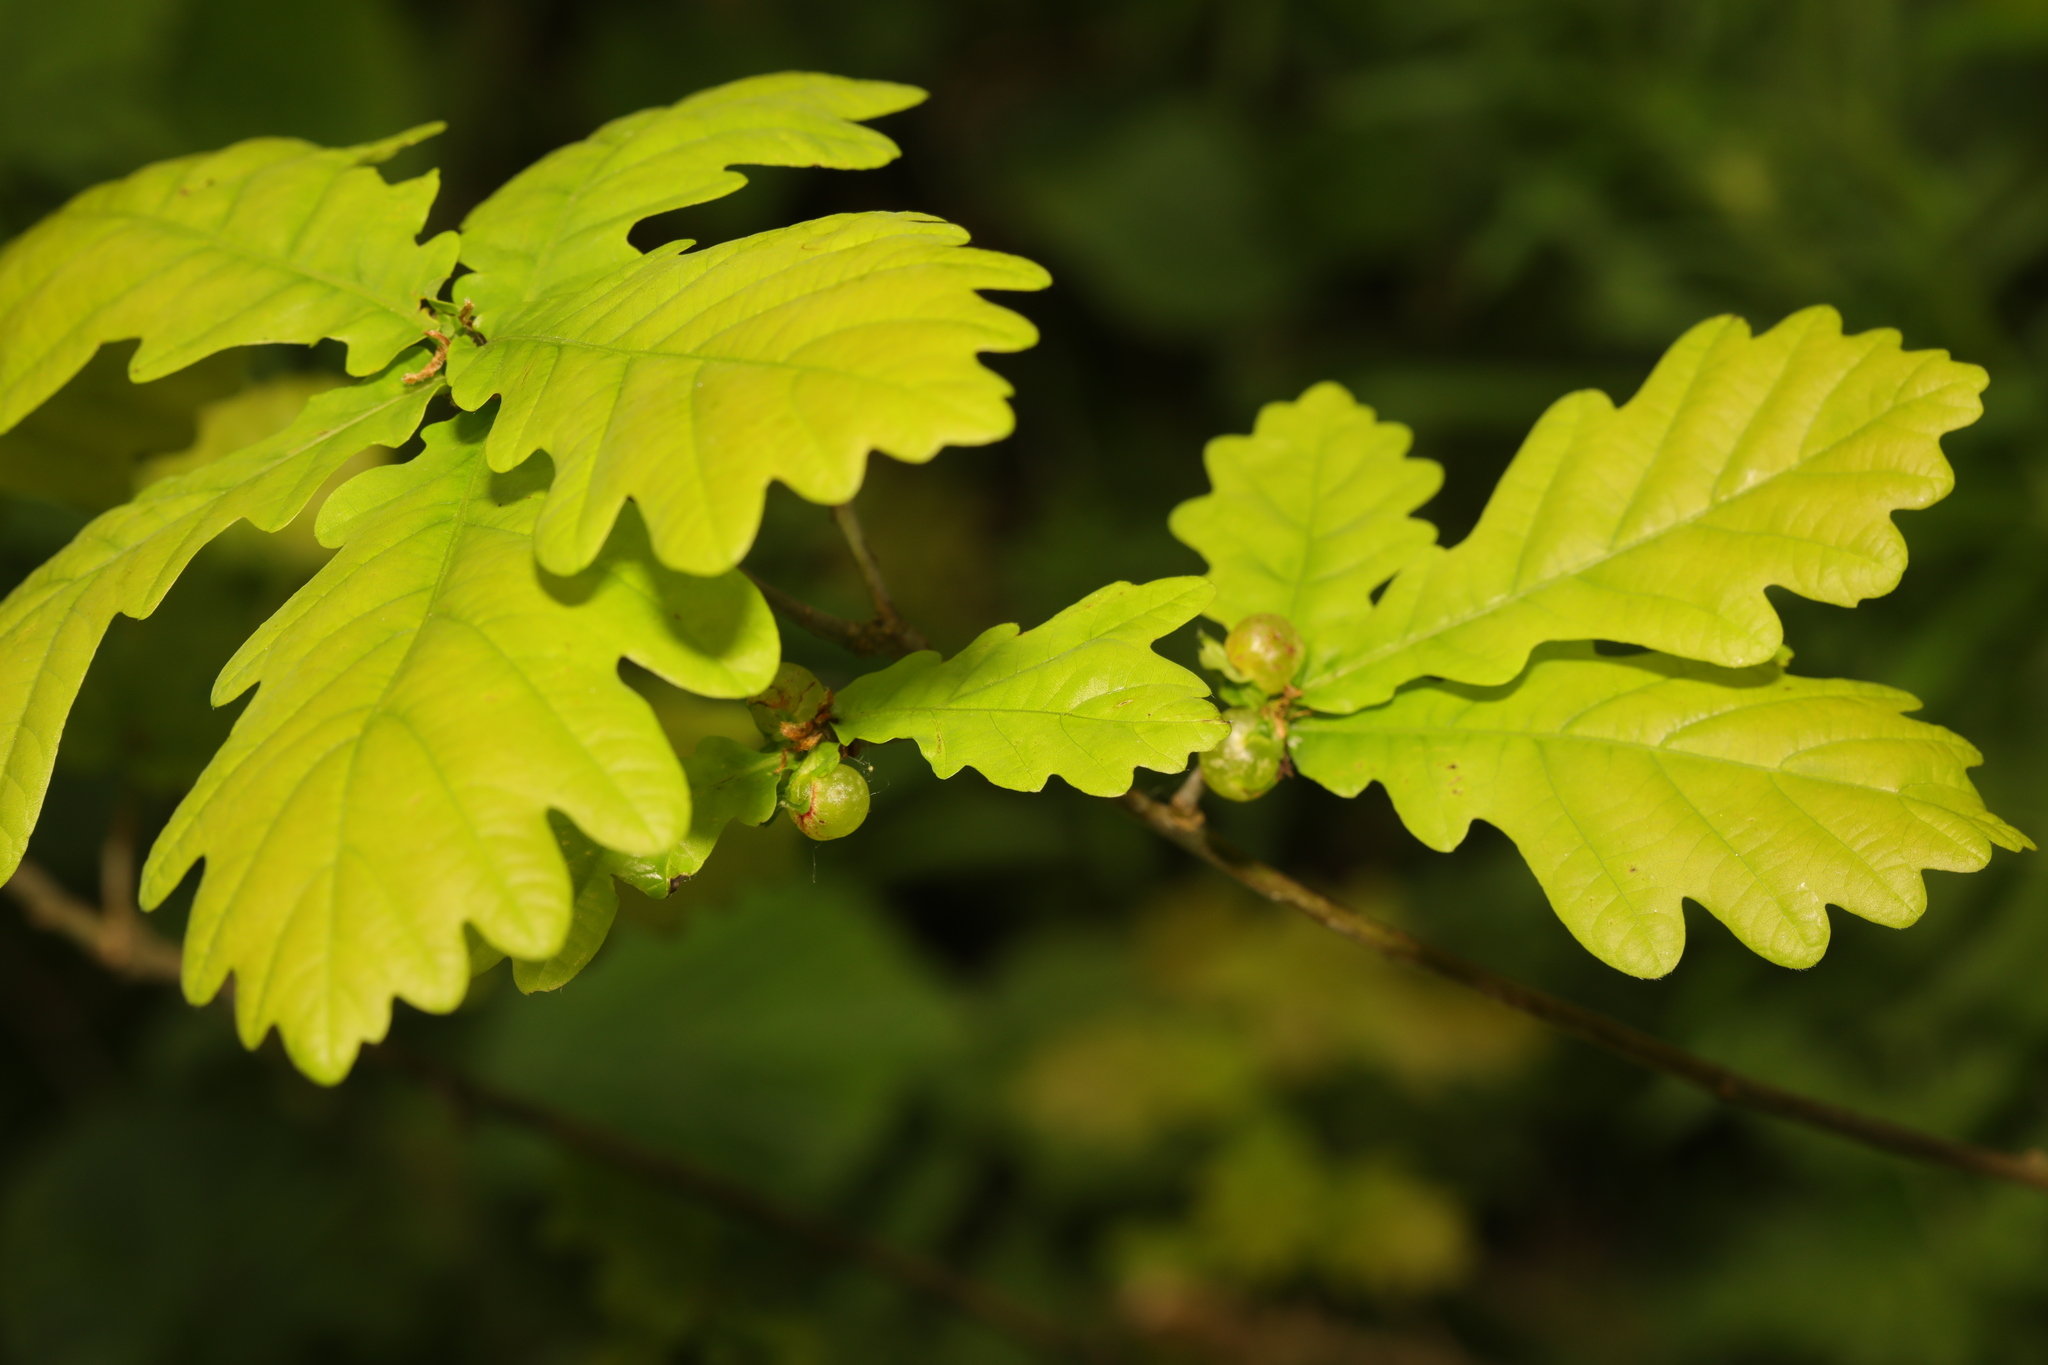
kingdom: Plantae
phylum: Tracheophyta
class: Magnoliopsida
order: Fagales
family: Fagaceae
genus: Quercus
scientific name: Quercus robur
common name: Pedunculate oak
